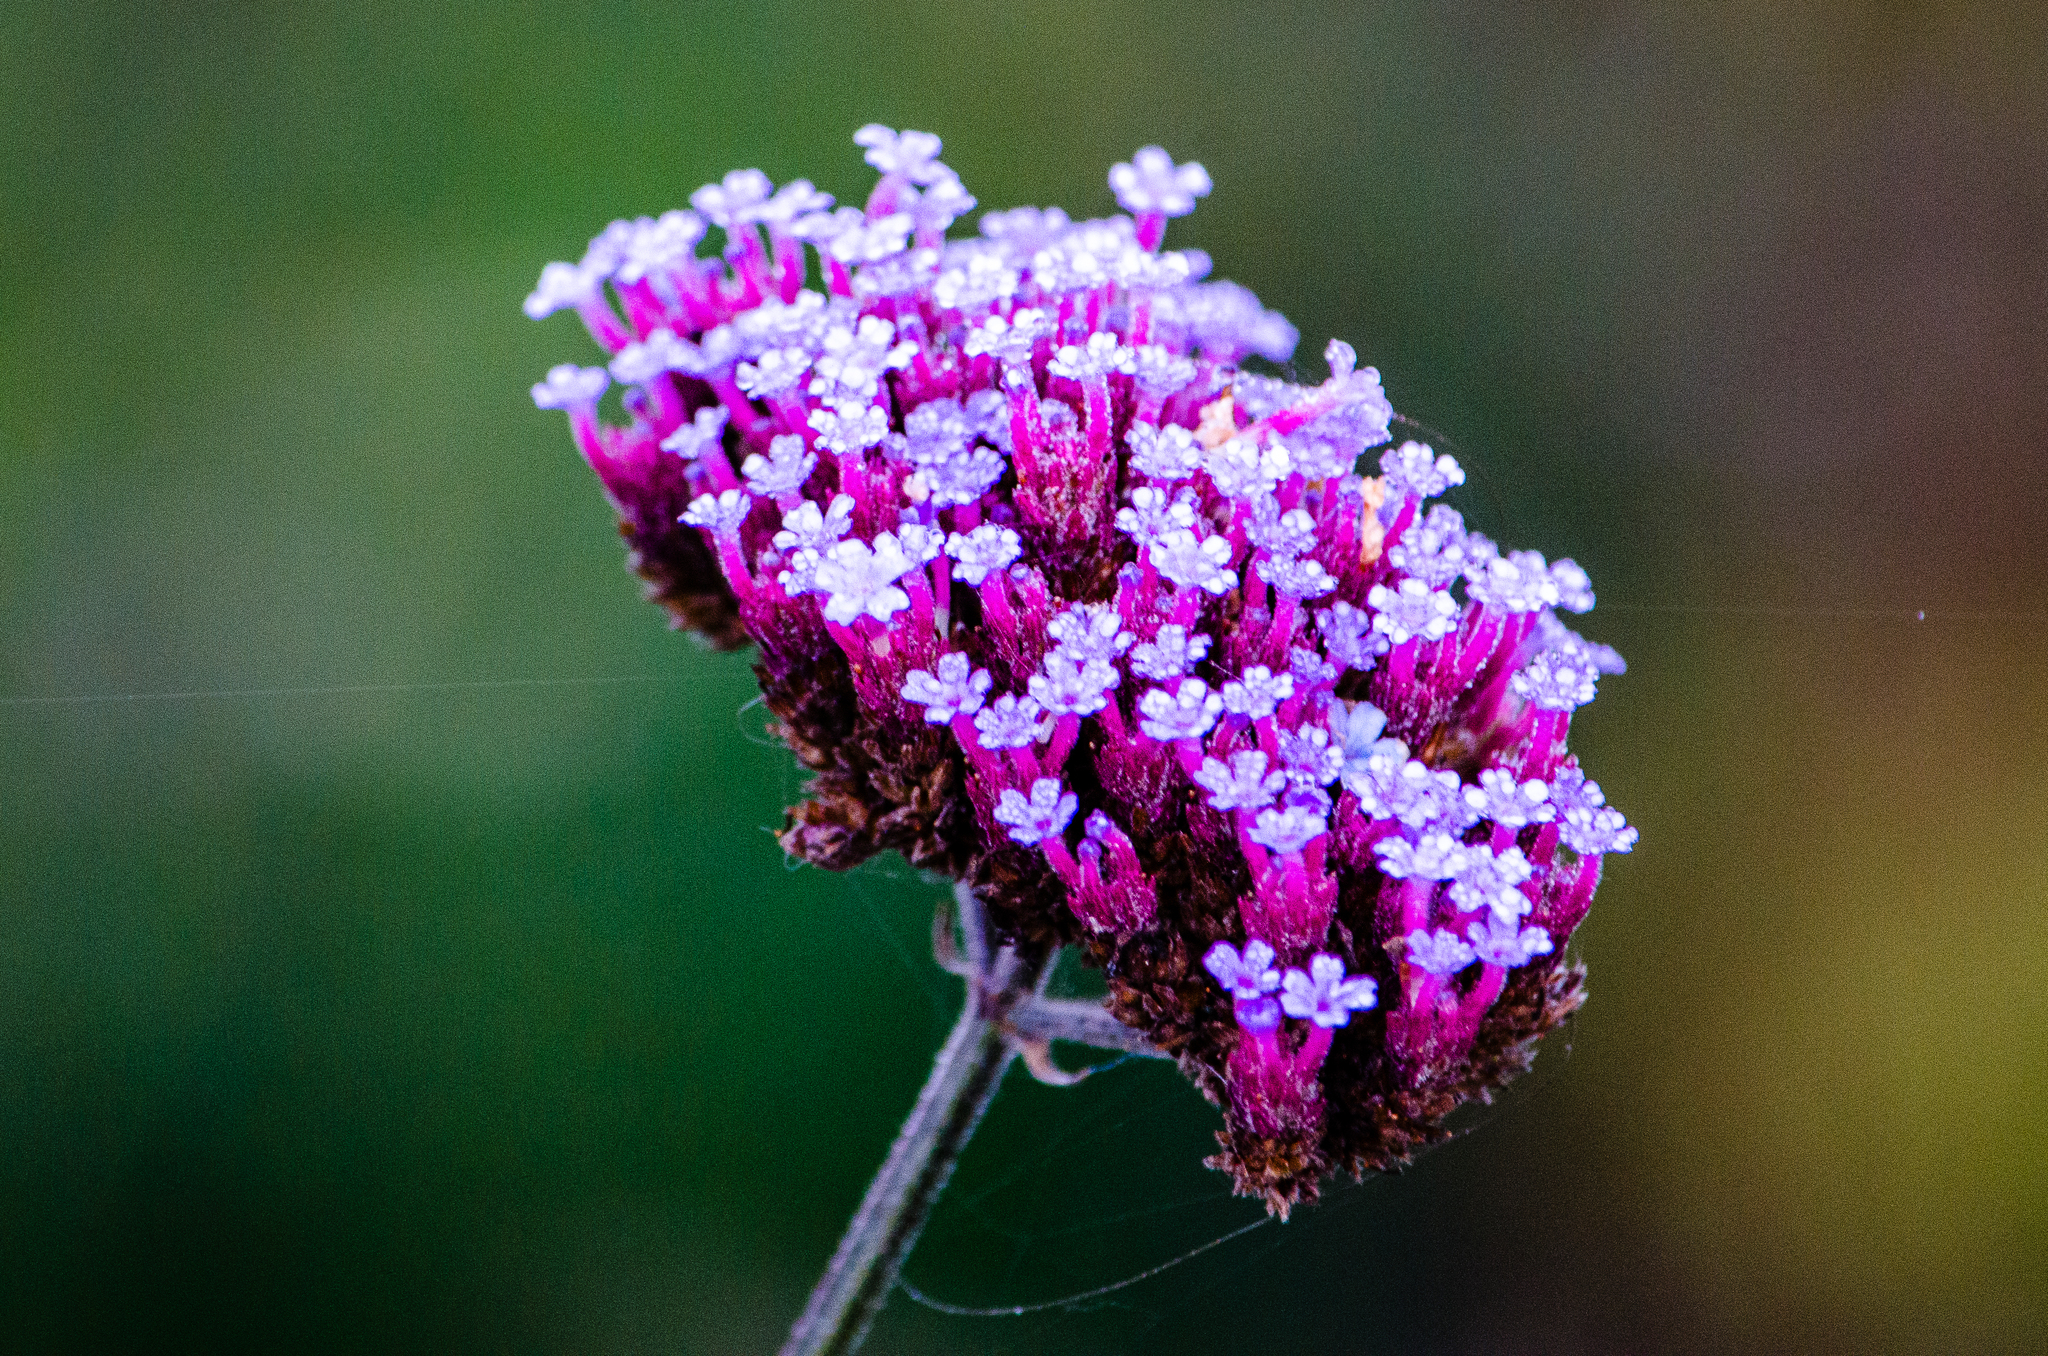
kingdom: Plantae
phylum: Tracheophyta
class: Magnoliopsida
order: Lamiales
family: Verbenaceae
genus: Verbena
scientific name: Verbena bonariensis
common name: Purpletop vervain
